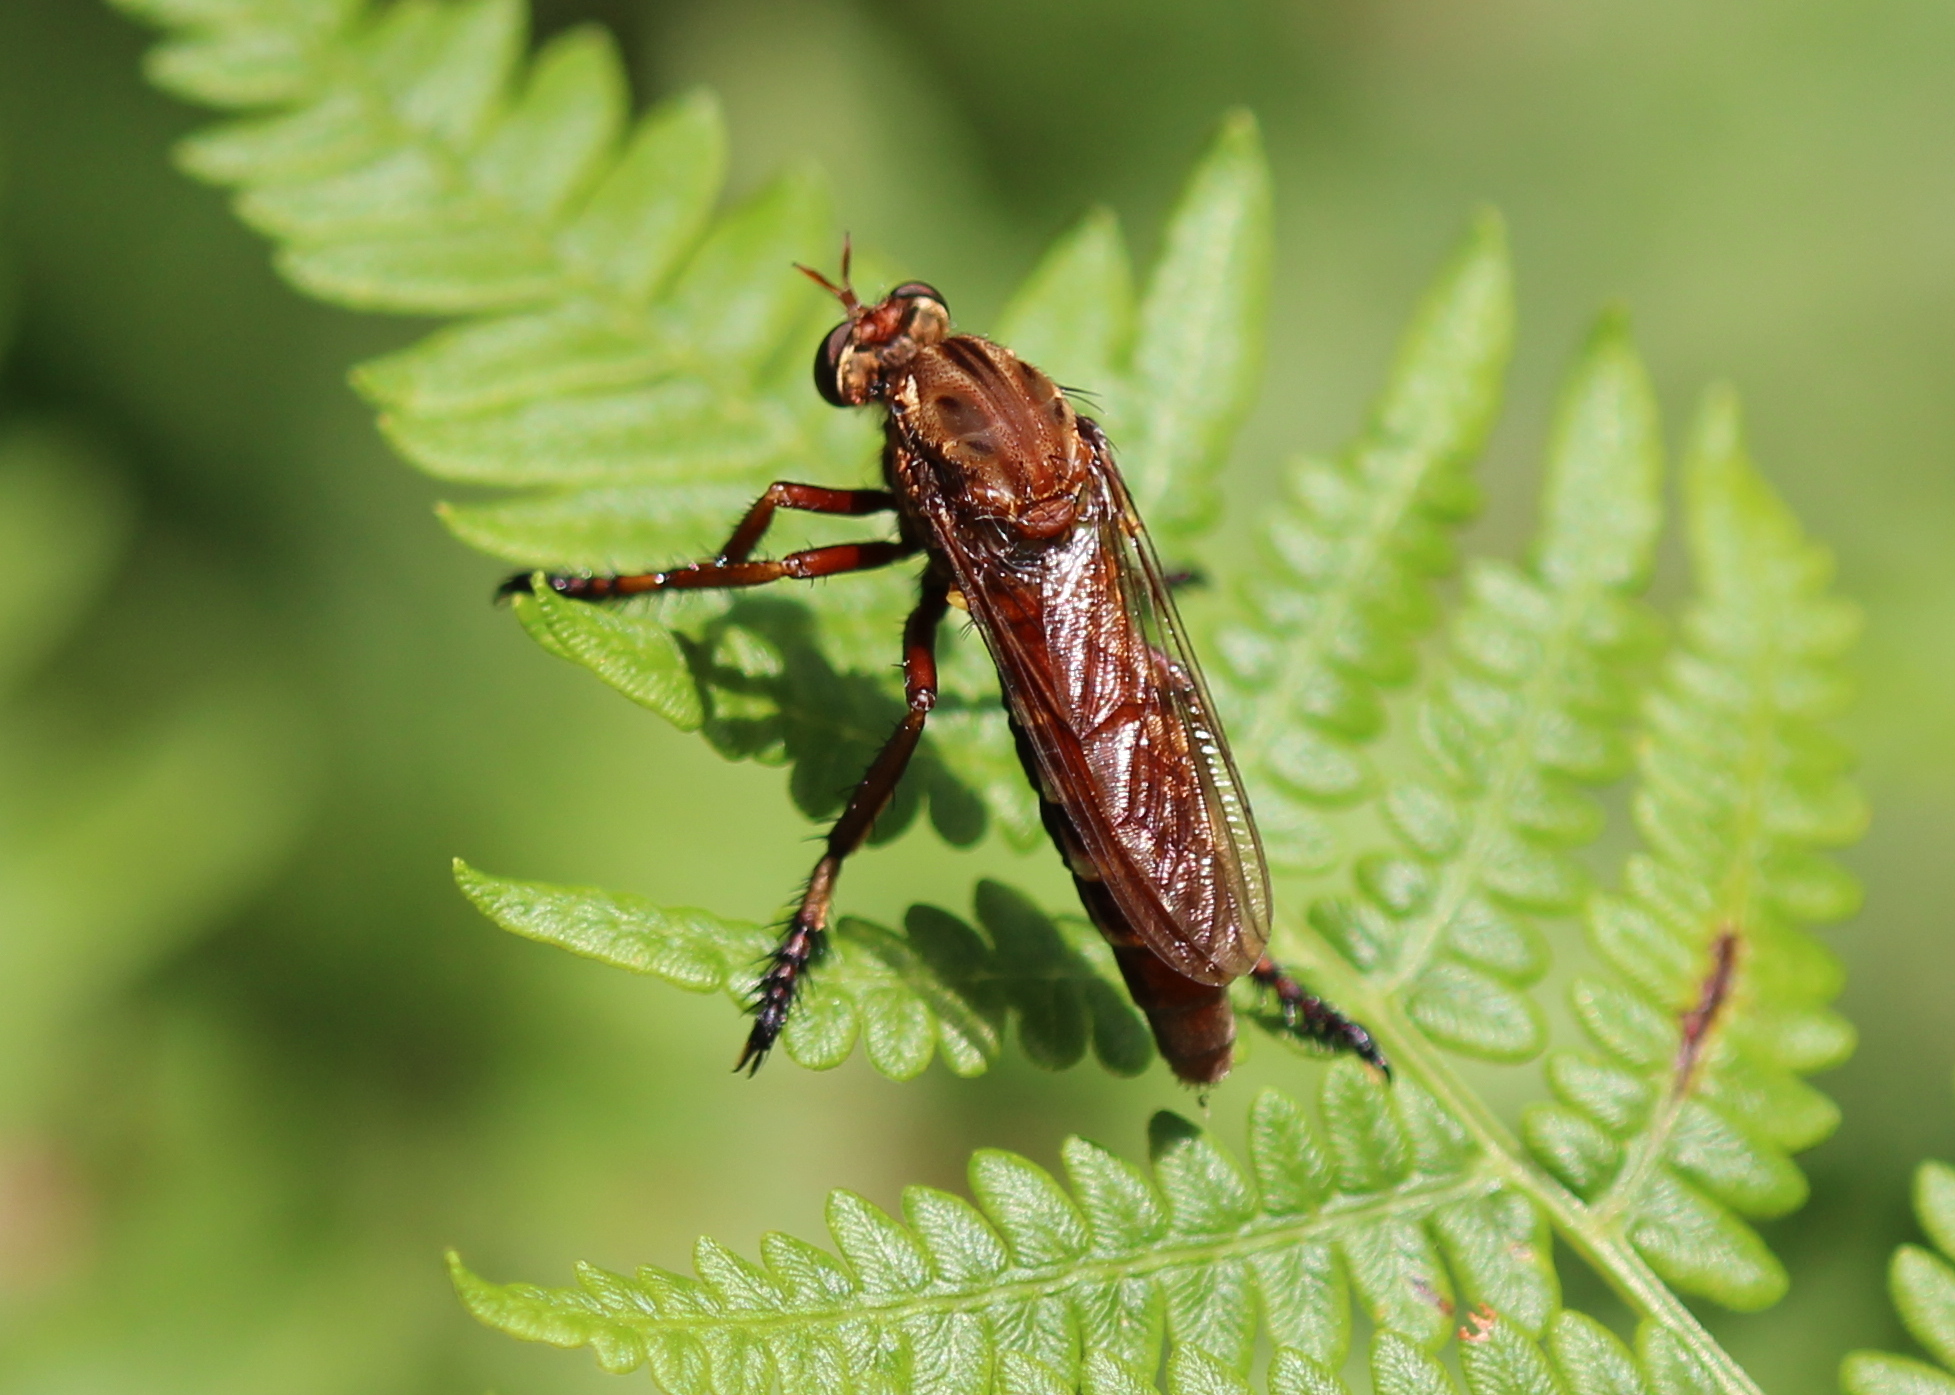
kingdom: Animalia
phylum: Arthropoda
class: Insecta
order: Diptera
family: Asilidae
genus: Diogmites
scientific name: Diogmites basalis
